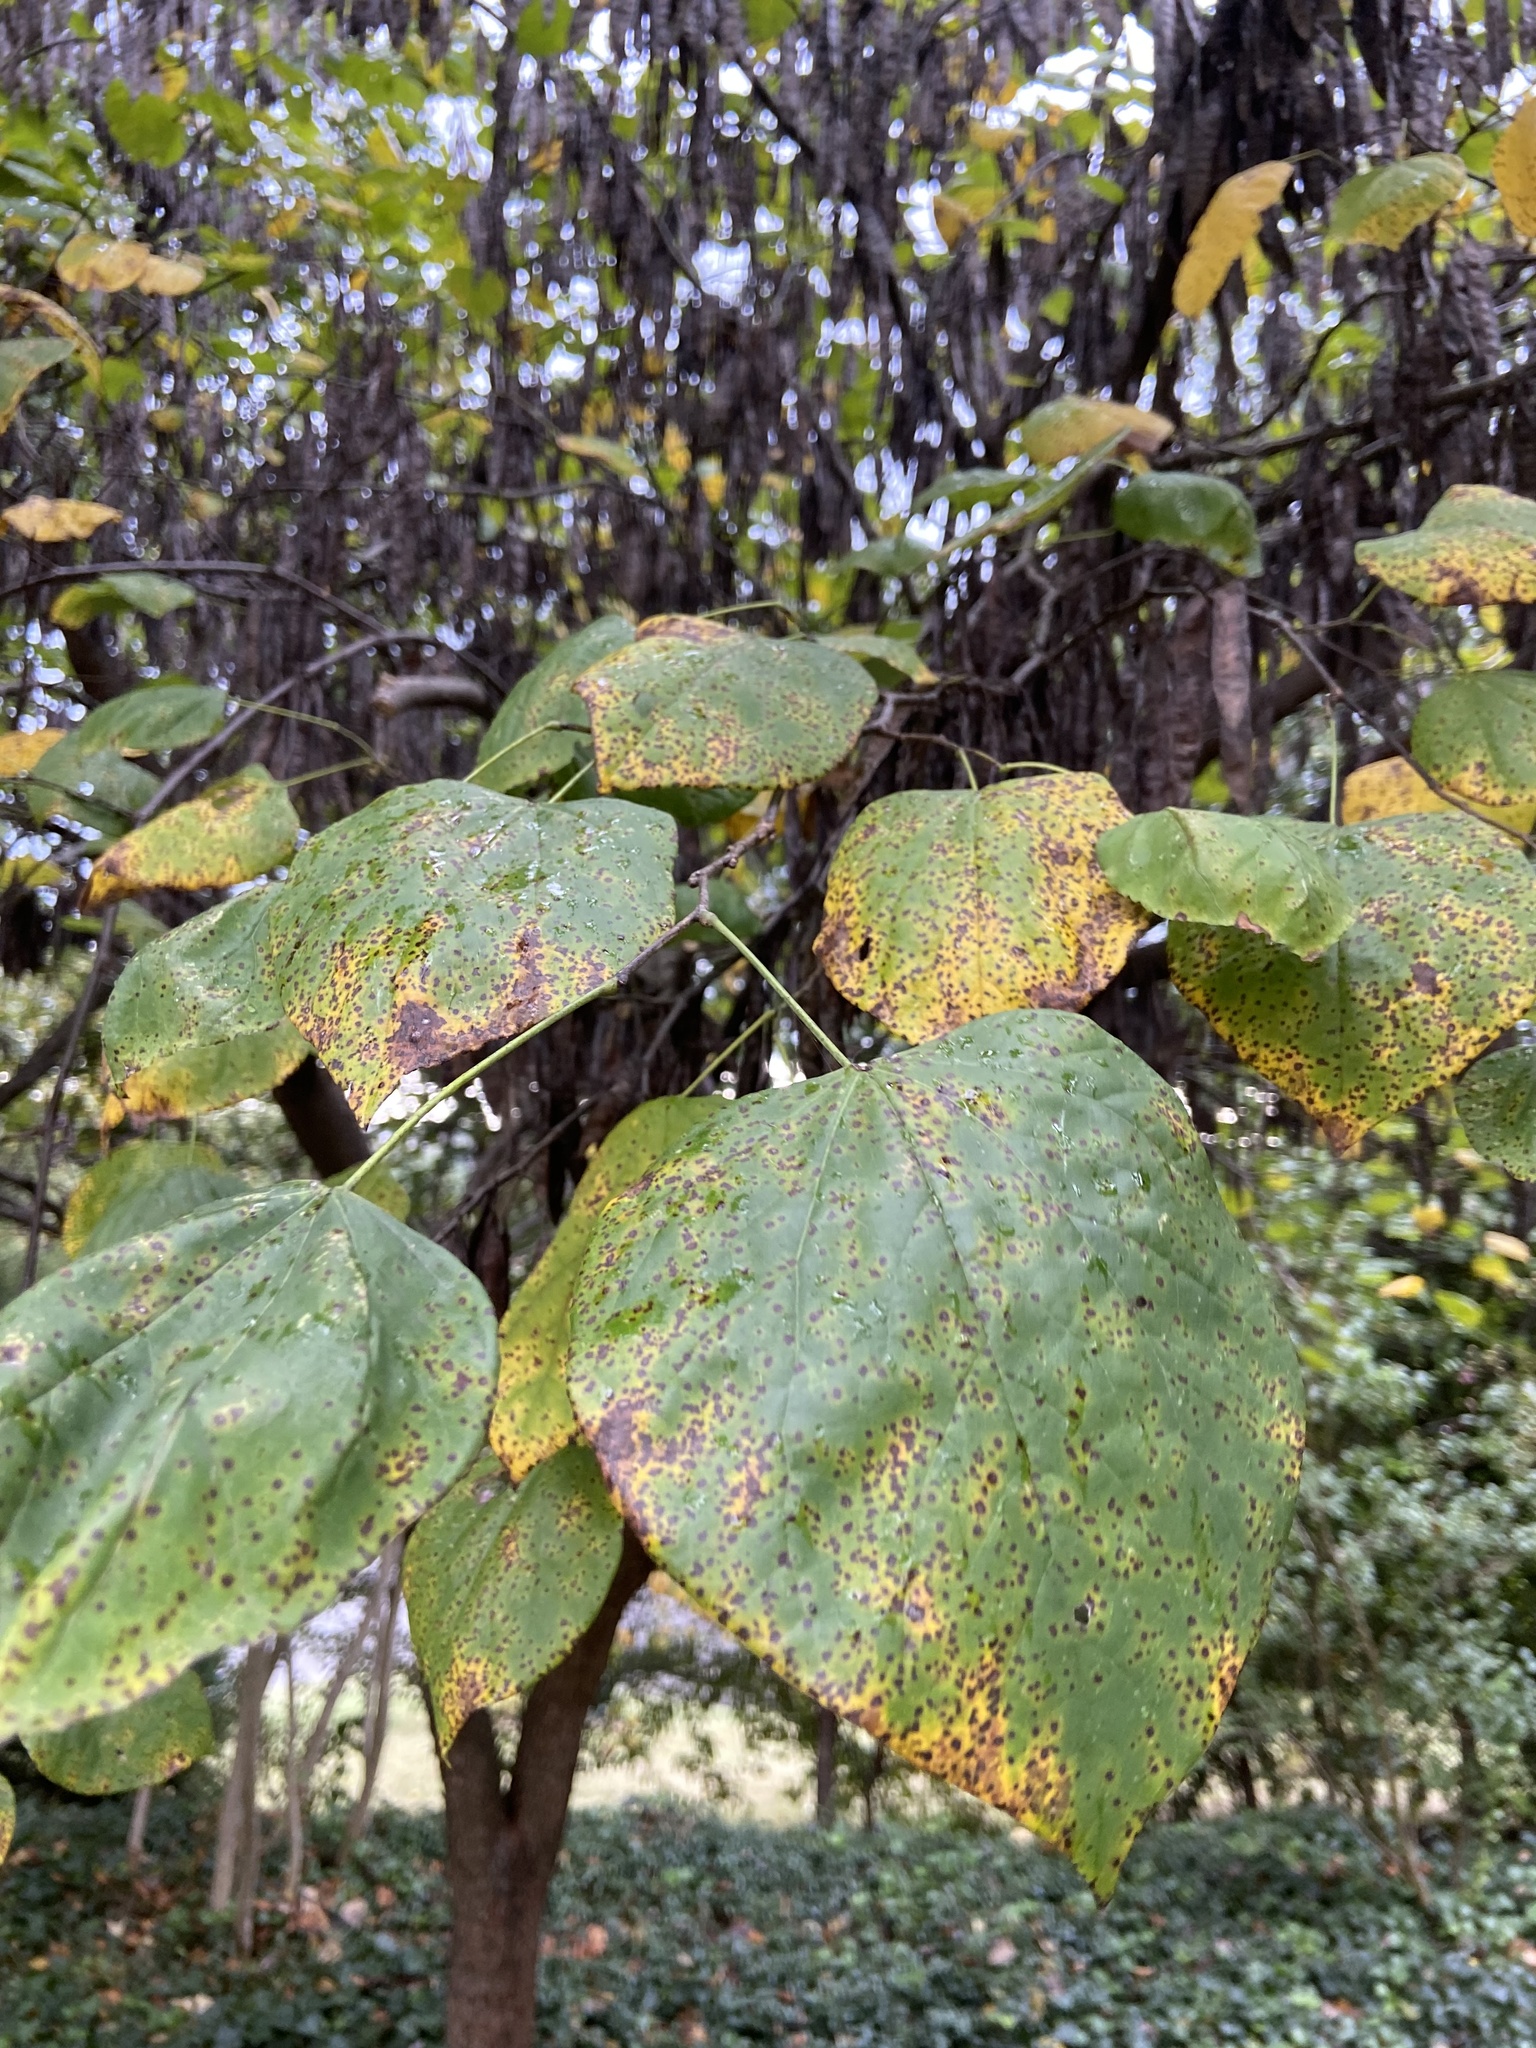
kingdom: Plantae
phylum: Tracheophyta
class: Magnoliopsida
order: Fabales
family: Fabaceae
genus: Cercis
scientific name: Cercis canadensis
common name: Eastern redbud
